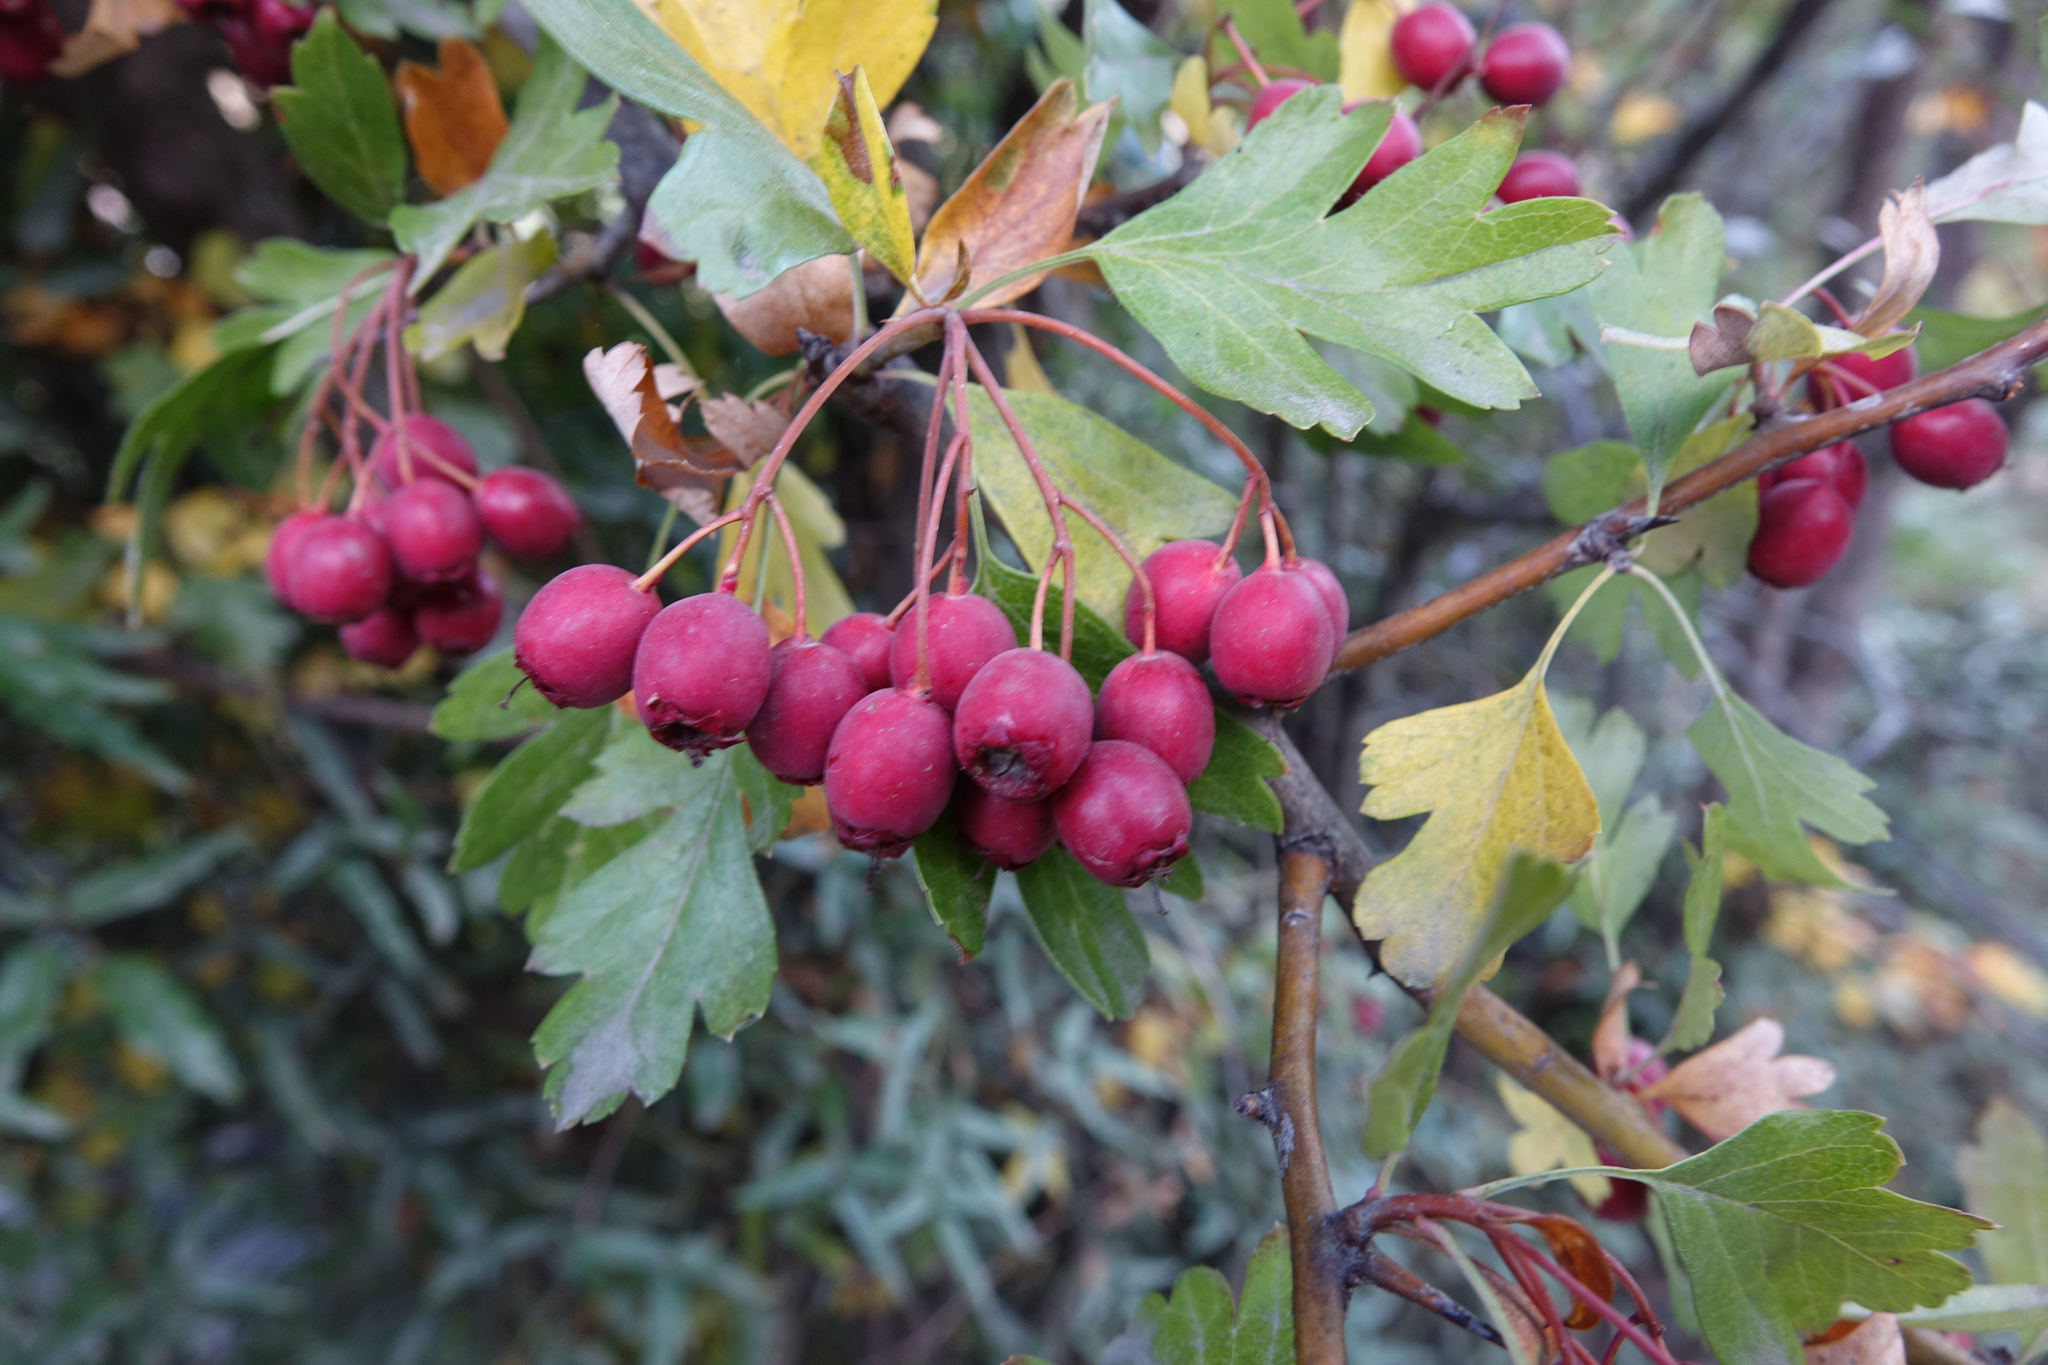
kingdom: Plantae
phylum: Tracheophyta
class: Magnoliopsida
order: Rosales
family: Rosaceae
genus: Crataegus
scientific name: Crataegus monogyna
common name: Hawthorn
